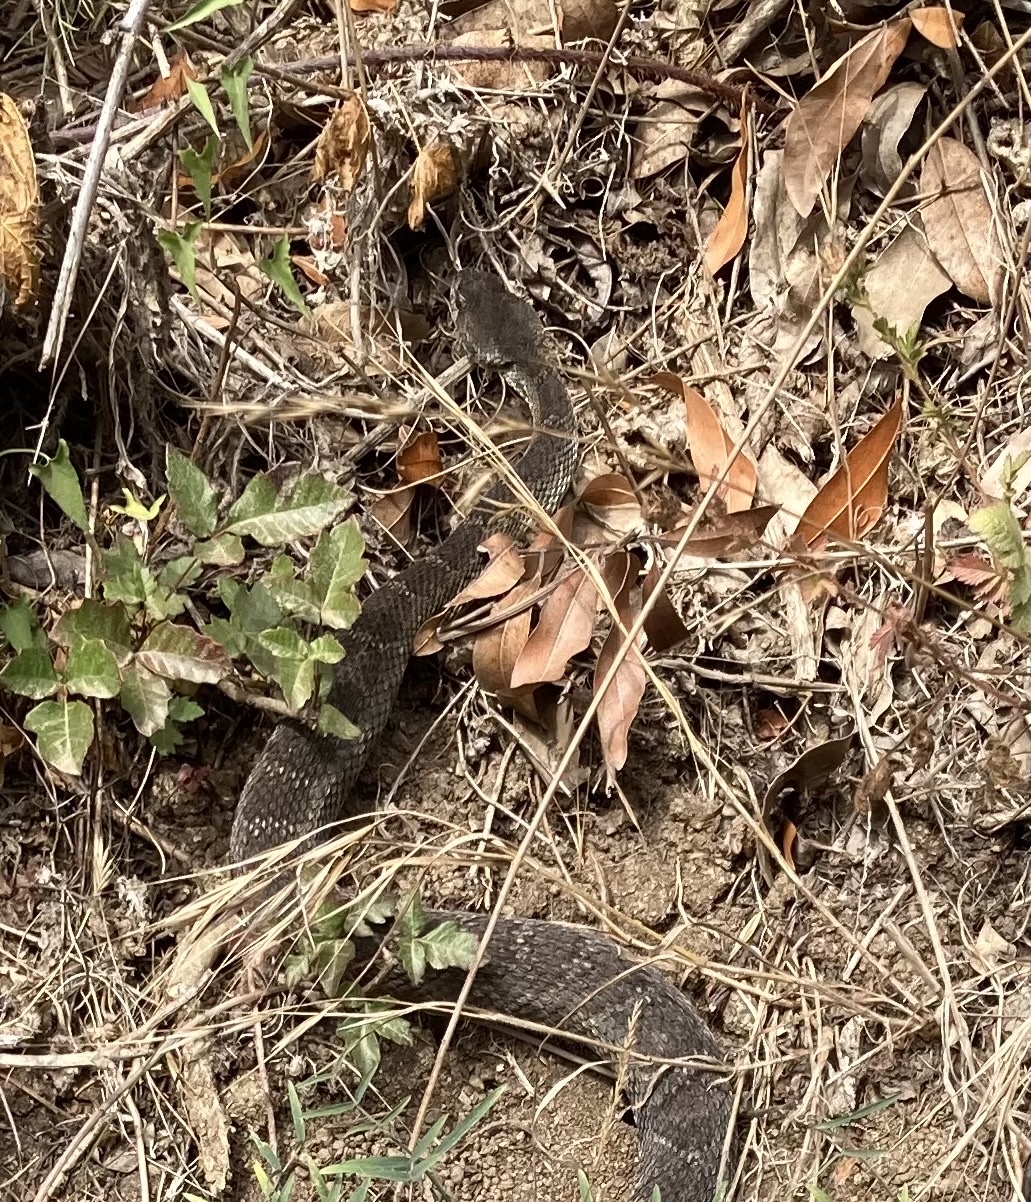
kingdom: Animalia
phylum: Chordata
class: Squamata
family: Viperidae
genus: Crotalus
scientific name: Crotalus oreganus
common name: Abyssus
